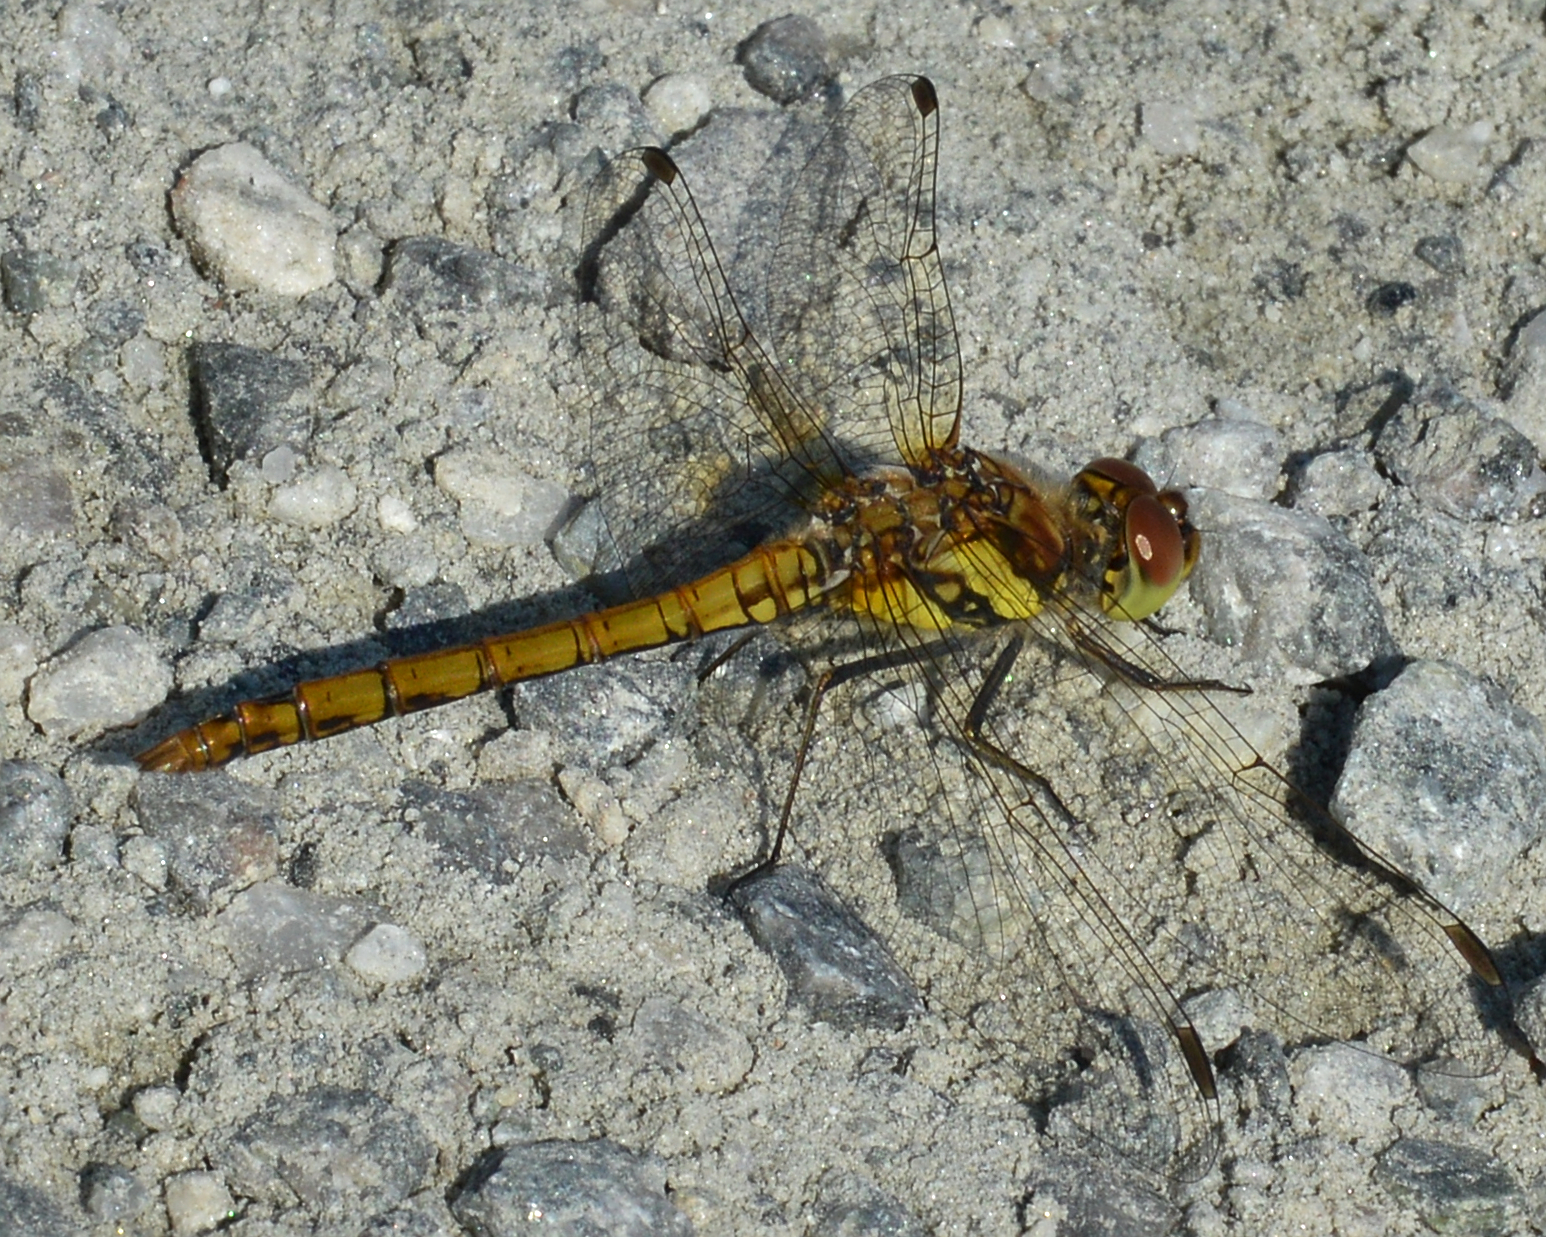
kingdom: Animalia
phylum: Arthropoda
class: Insecta
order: Odonata
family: Libellulidae
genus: Sympetrum
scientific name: Sympetrum danae
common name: Black darter
